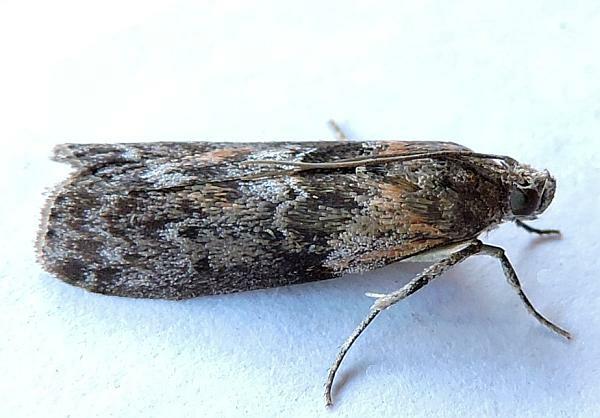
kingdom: Animalia
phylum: Arthropoda
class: Insecta
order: Lepidoptera
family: Pyralidae
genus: Sciota
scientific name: Sciota subcaesiella
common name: Locust leafroller
